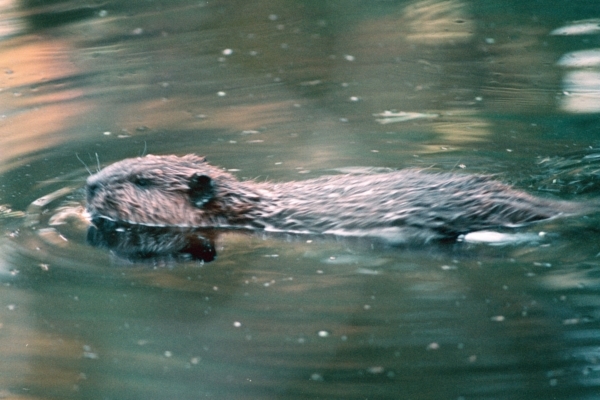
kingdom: Animalia
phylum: Chordata
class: Mammalia
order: Rodentia
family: Castoridae
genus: Castor
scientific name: Castor canadensis
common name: American beaver
